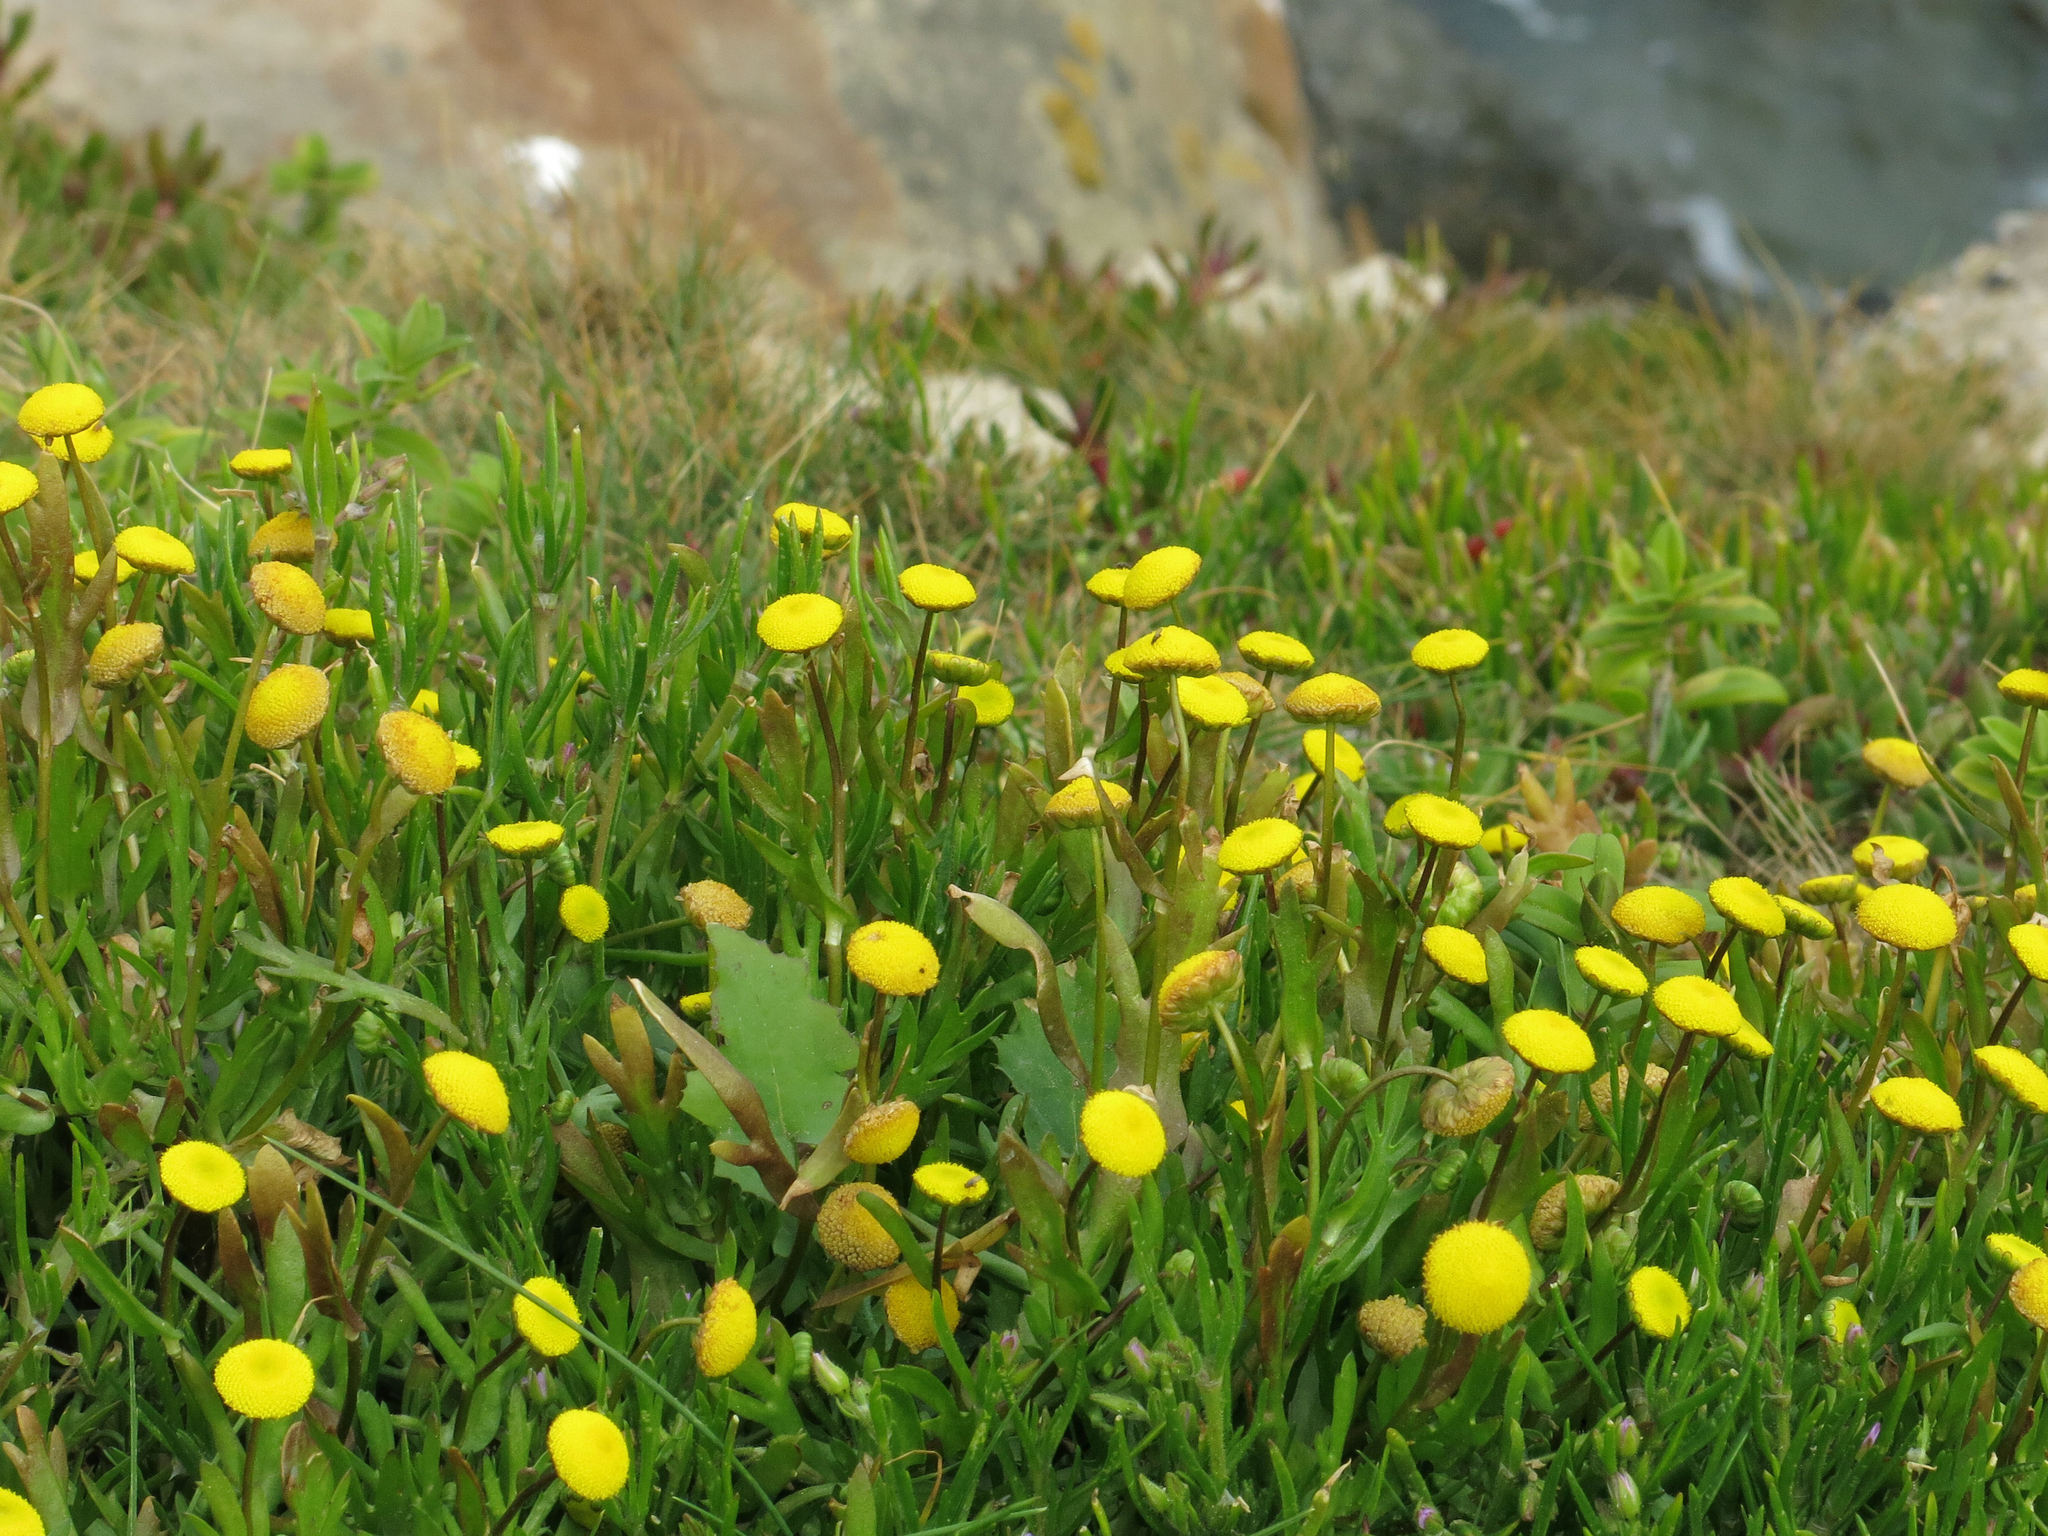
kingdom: Plantae
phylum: Tracheophyta
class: Magnoliopsida
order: Asterales
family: Asteraceae
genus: Cotula
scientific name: Cotula coronopifolia
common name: Buttonweed
